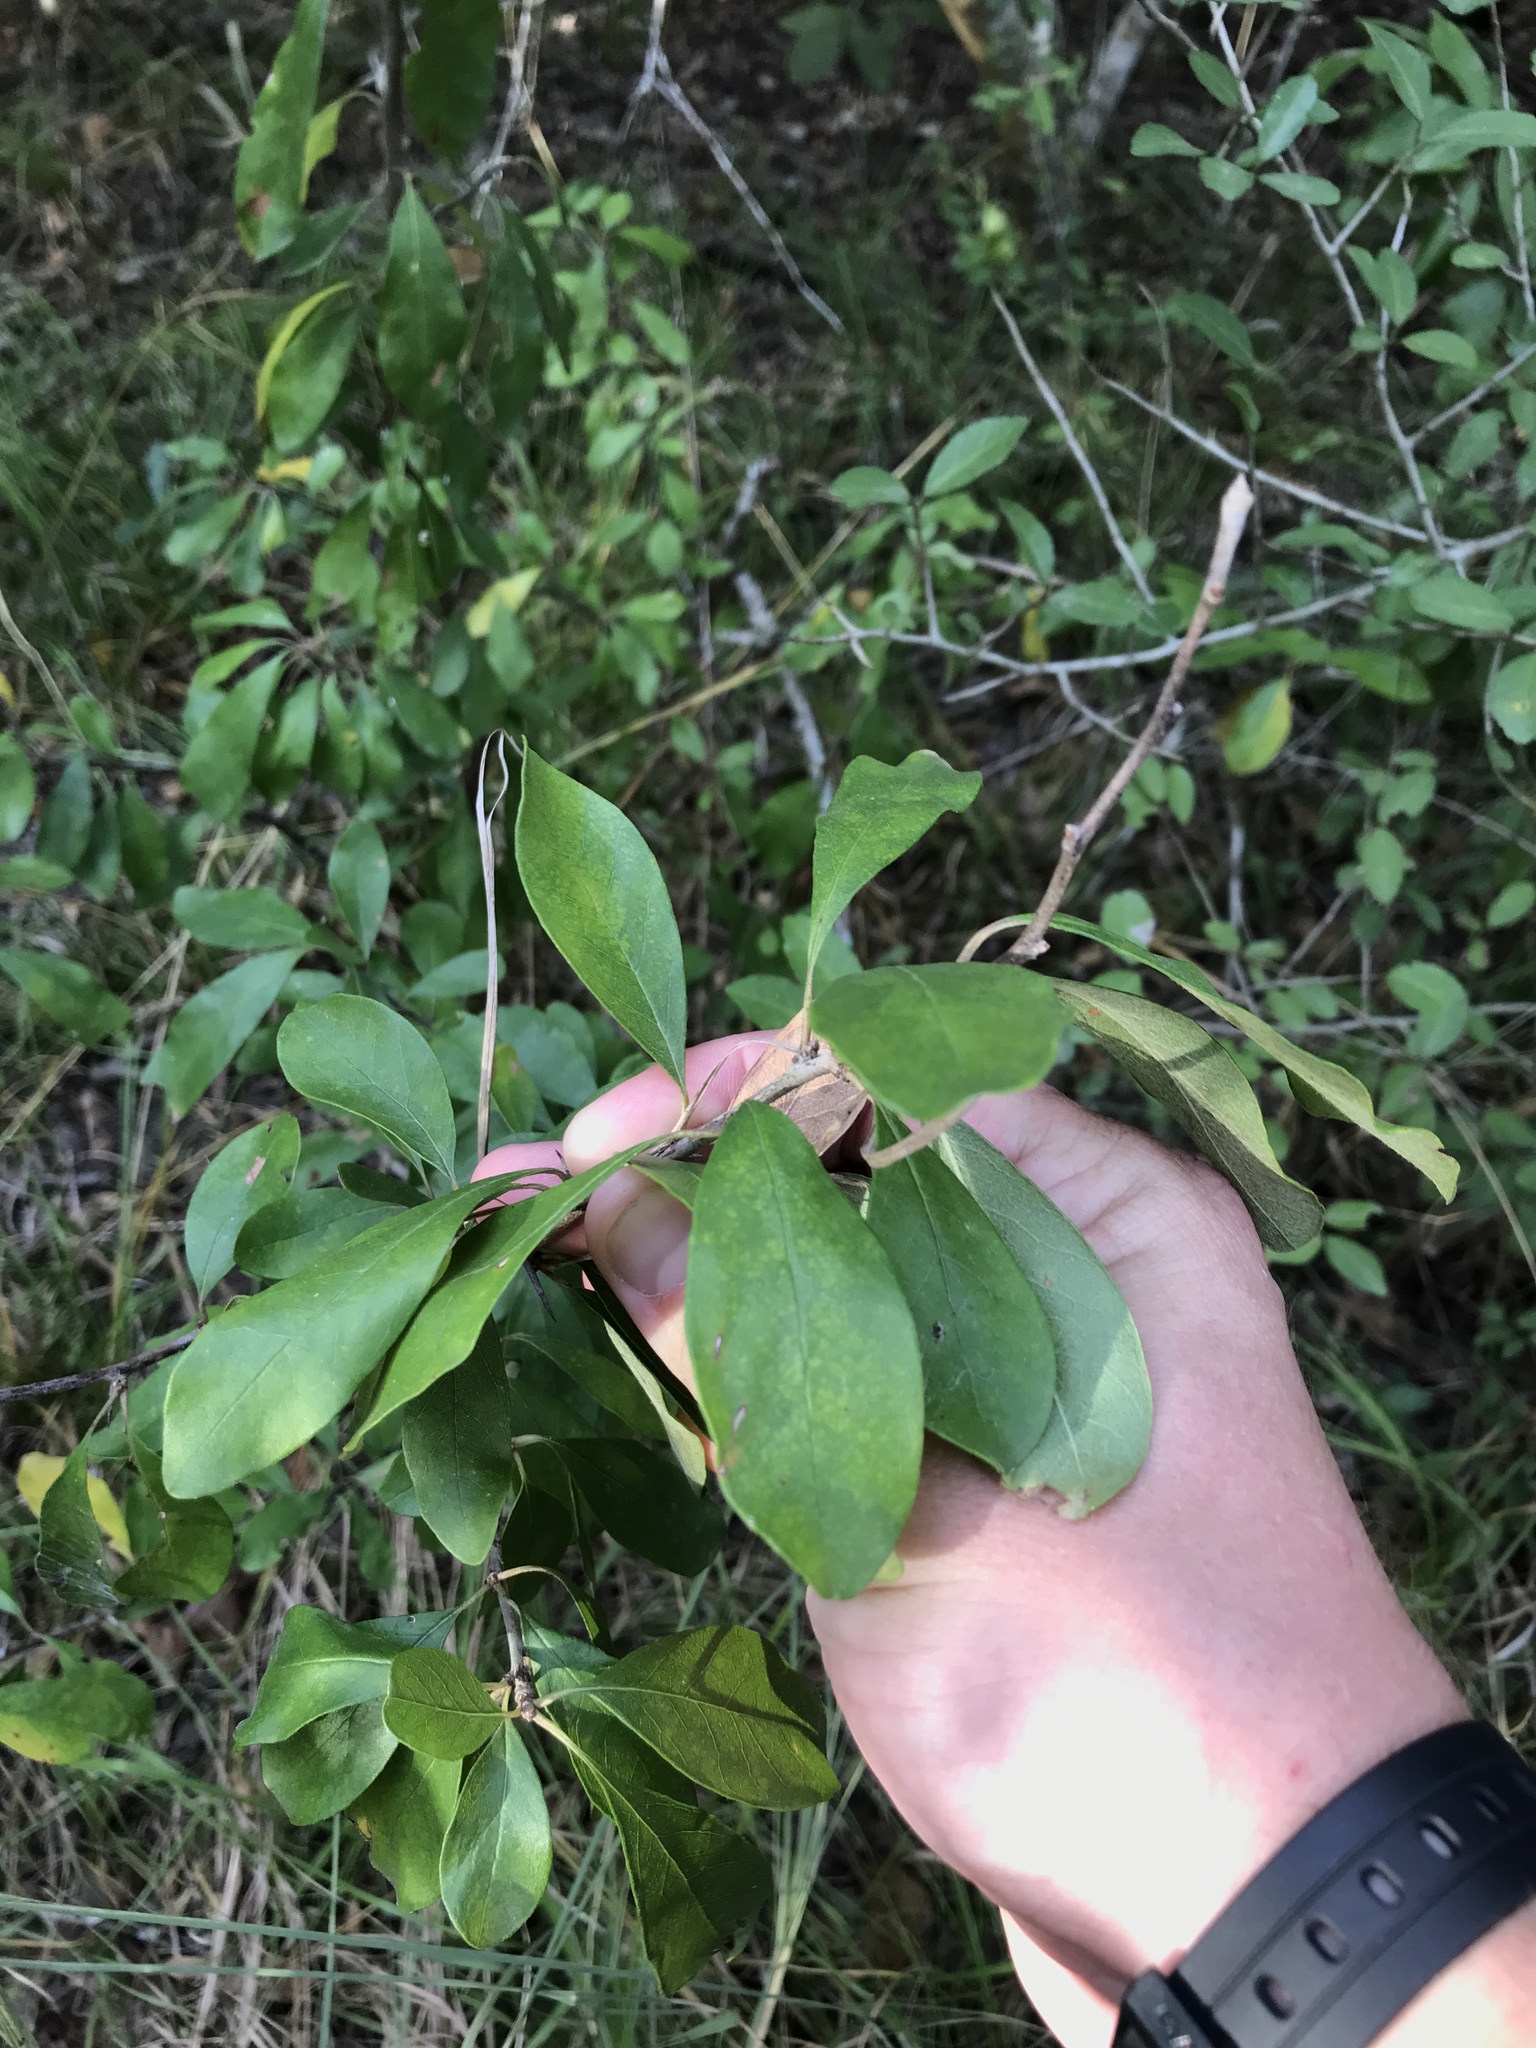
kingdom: Plantae
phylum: Tracheophyta
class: Magnoliopsida
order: Ericales
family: Sapotaceae
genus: Sideroxylon
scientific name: Sideroxylon lanuginosum
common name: Chittamwood
